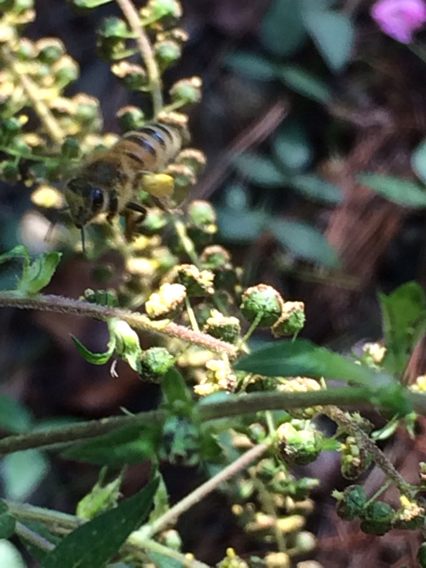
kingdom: Plantae
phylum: Tracheophyta
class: Magnoliopsida
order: Asterales
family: Asteraceae
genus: Ambrosia
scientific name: Ambrosia trifida
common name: Giant ragweed
